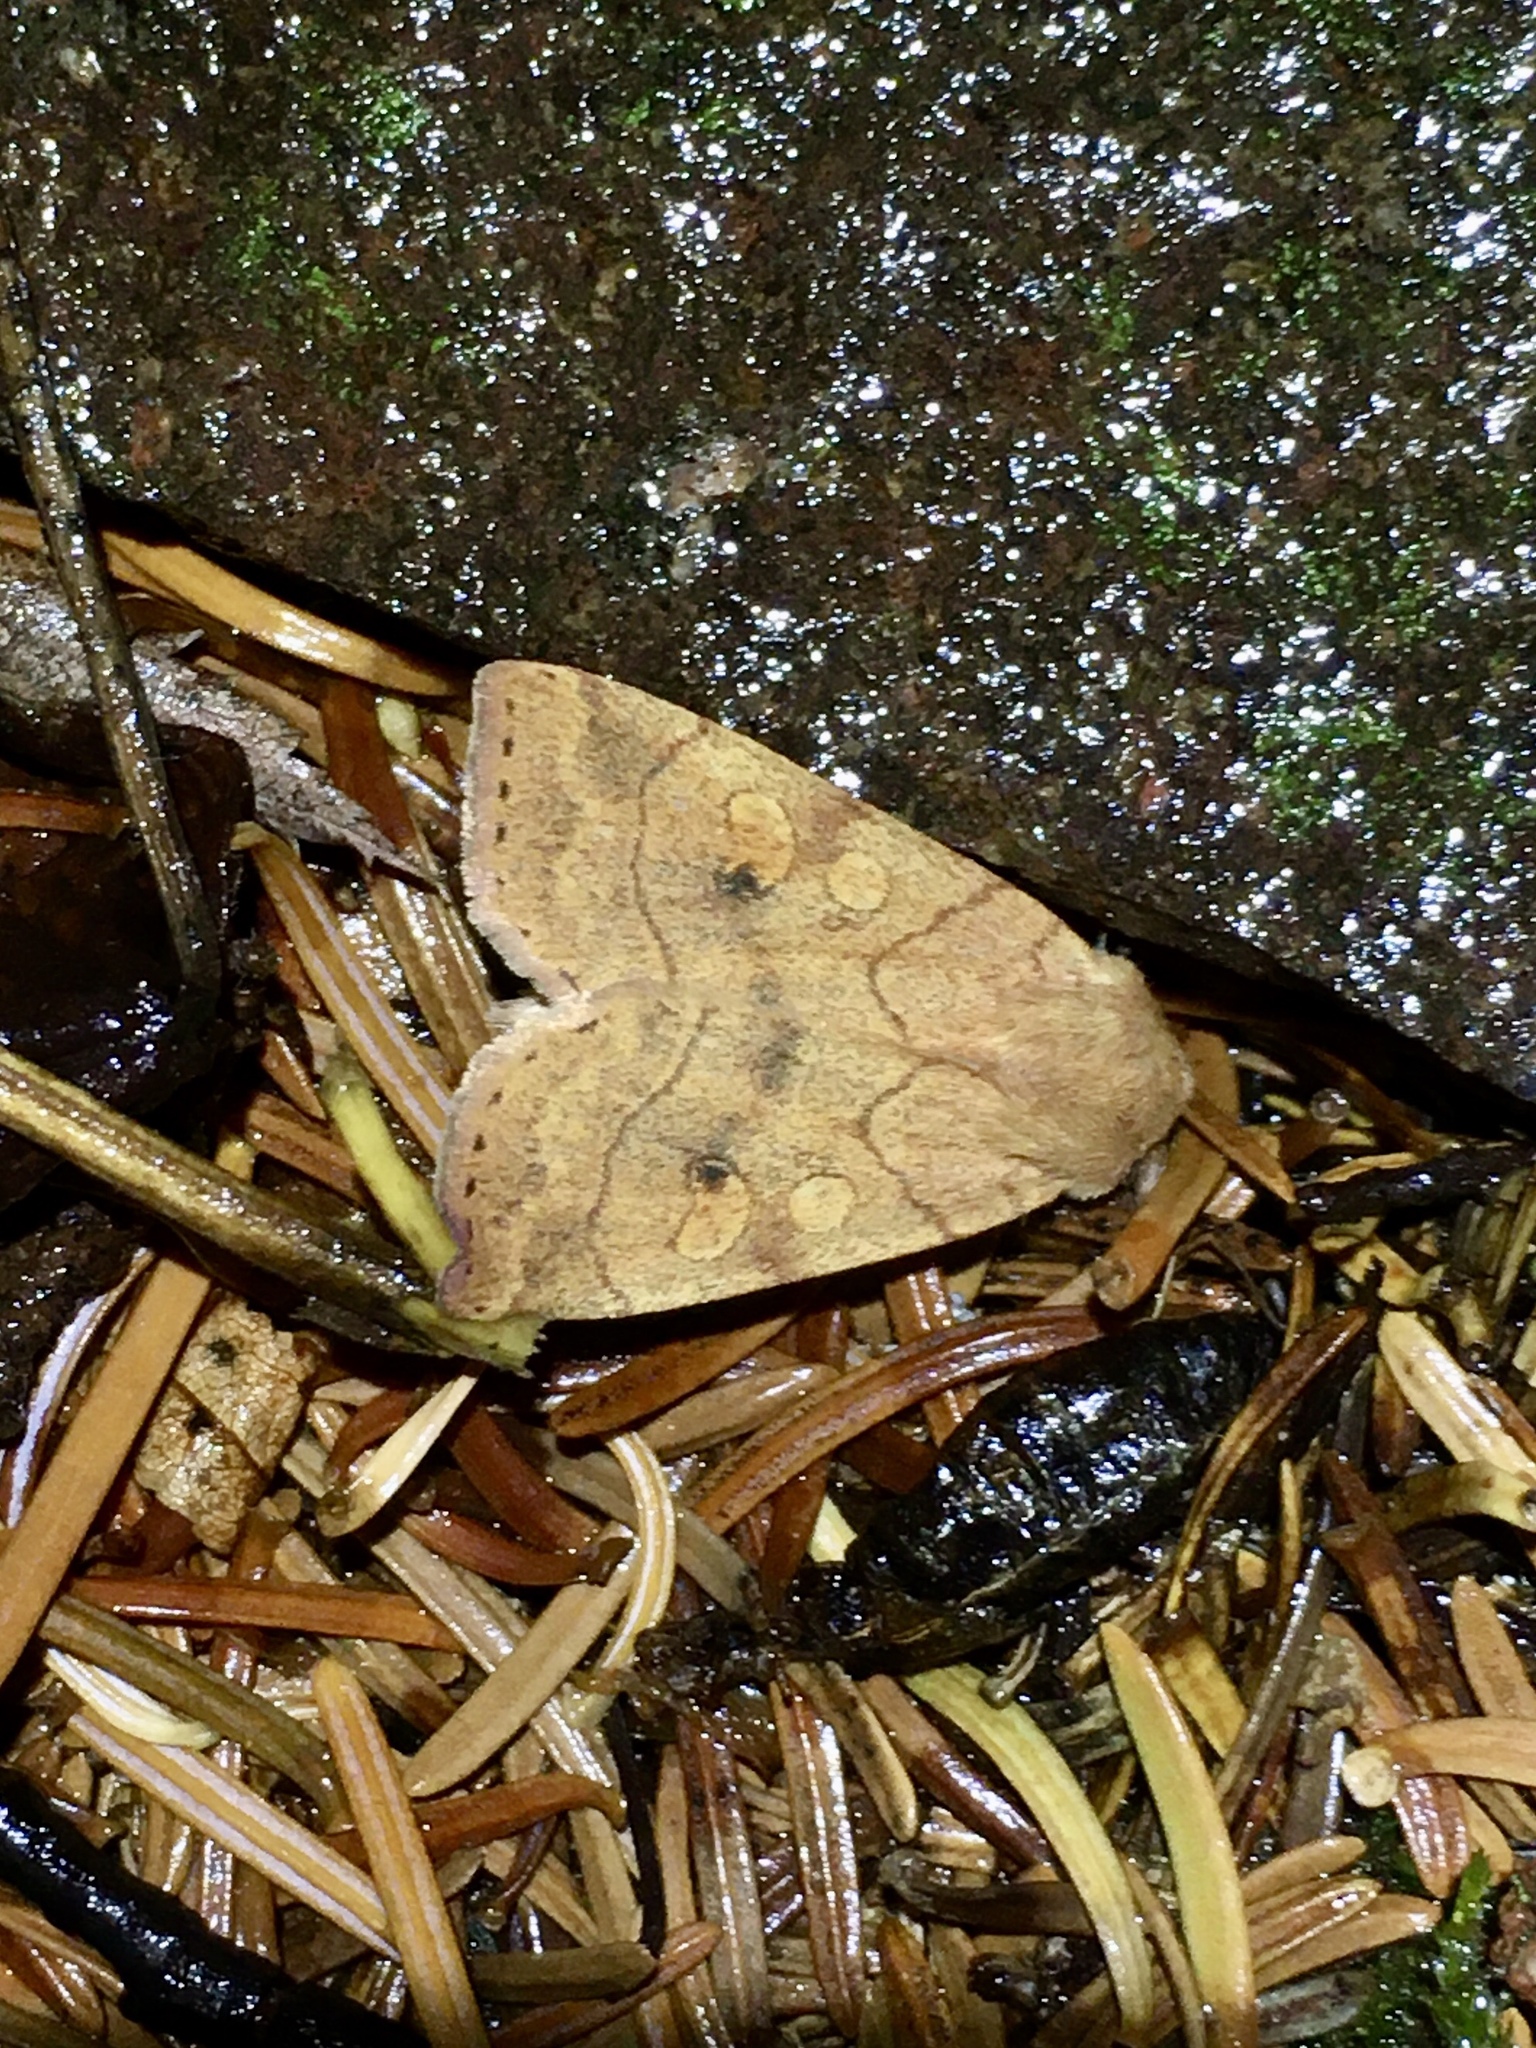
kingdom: Animalia
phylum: Arthropoda
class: Insecta
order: Lepidoptera
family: Noctuidae
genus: Enargia
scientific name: Enargia infumata
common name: Smoked sallow
